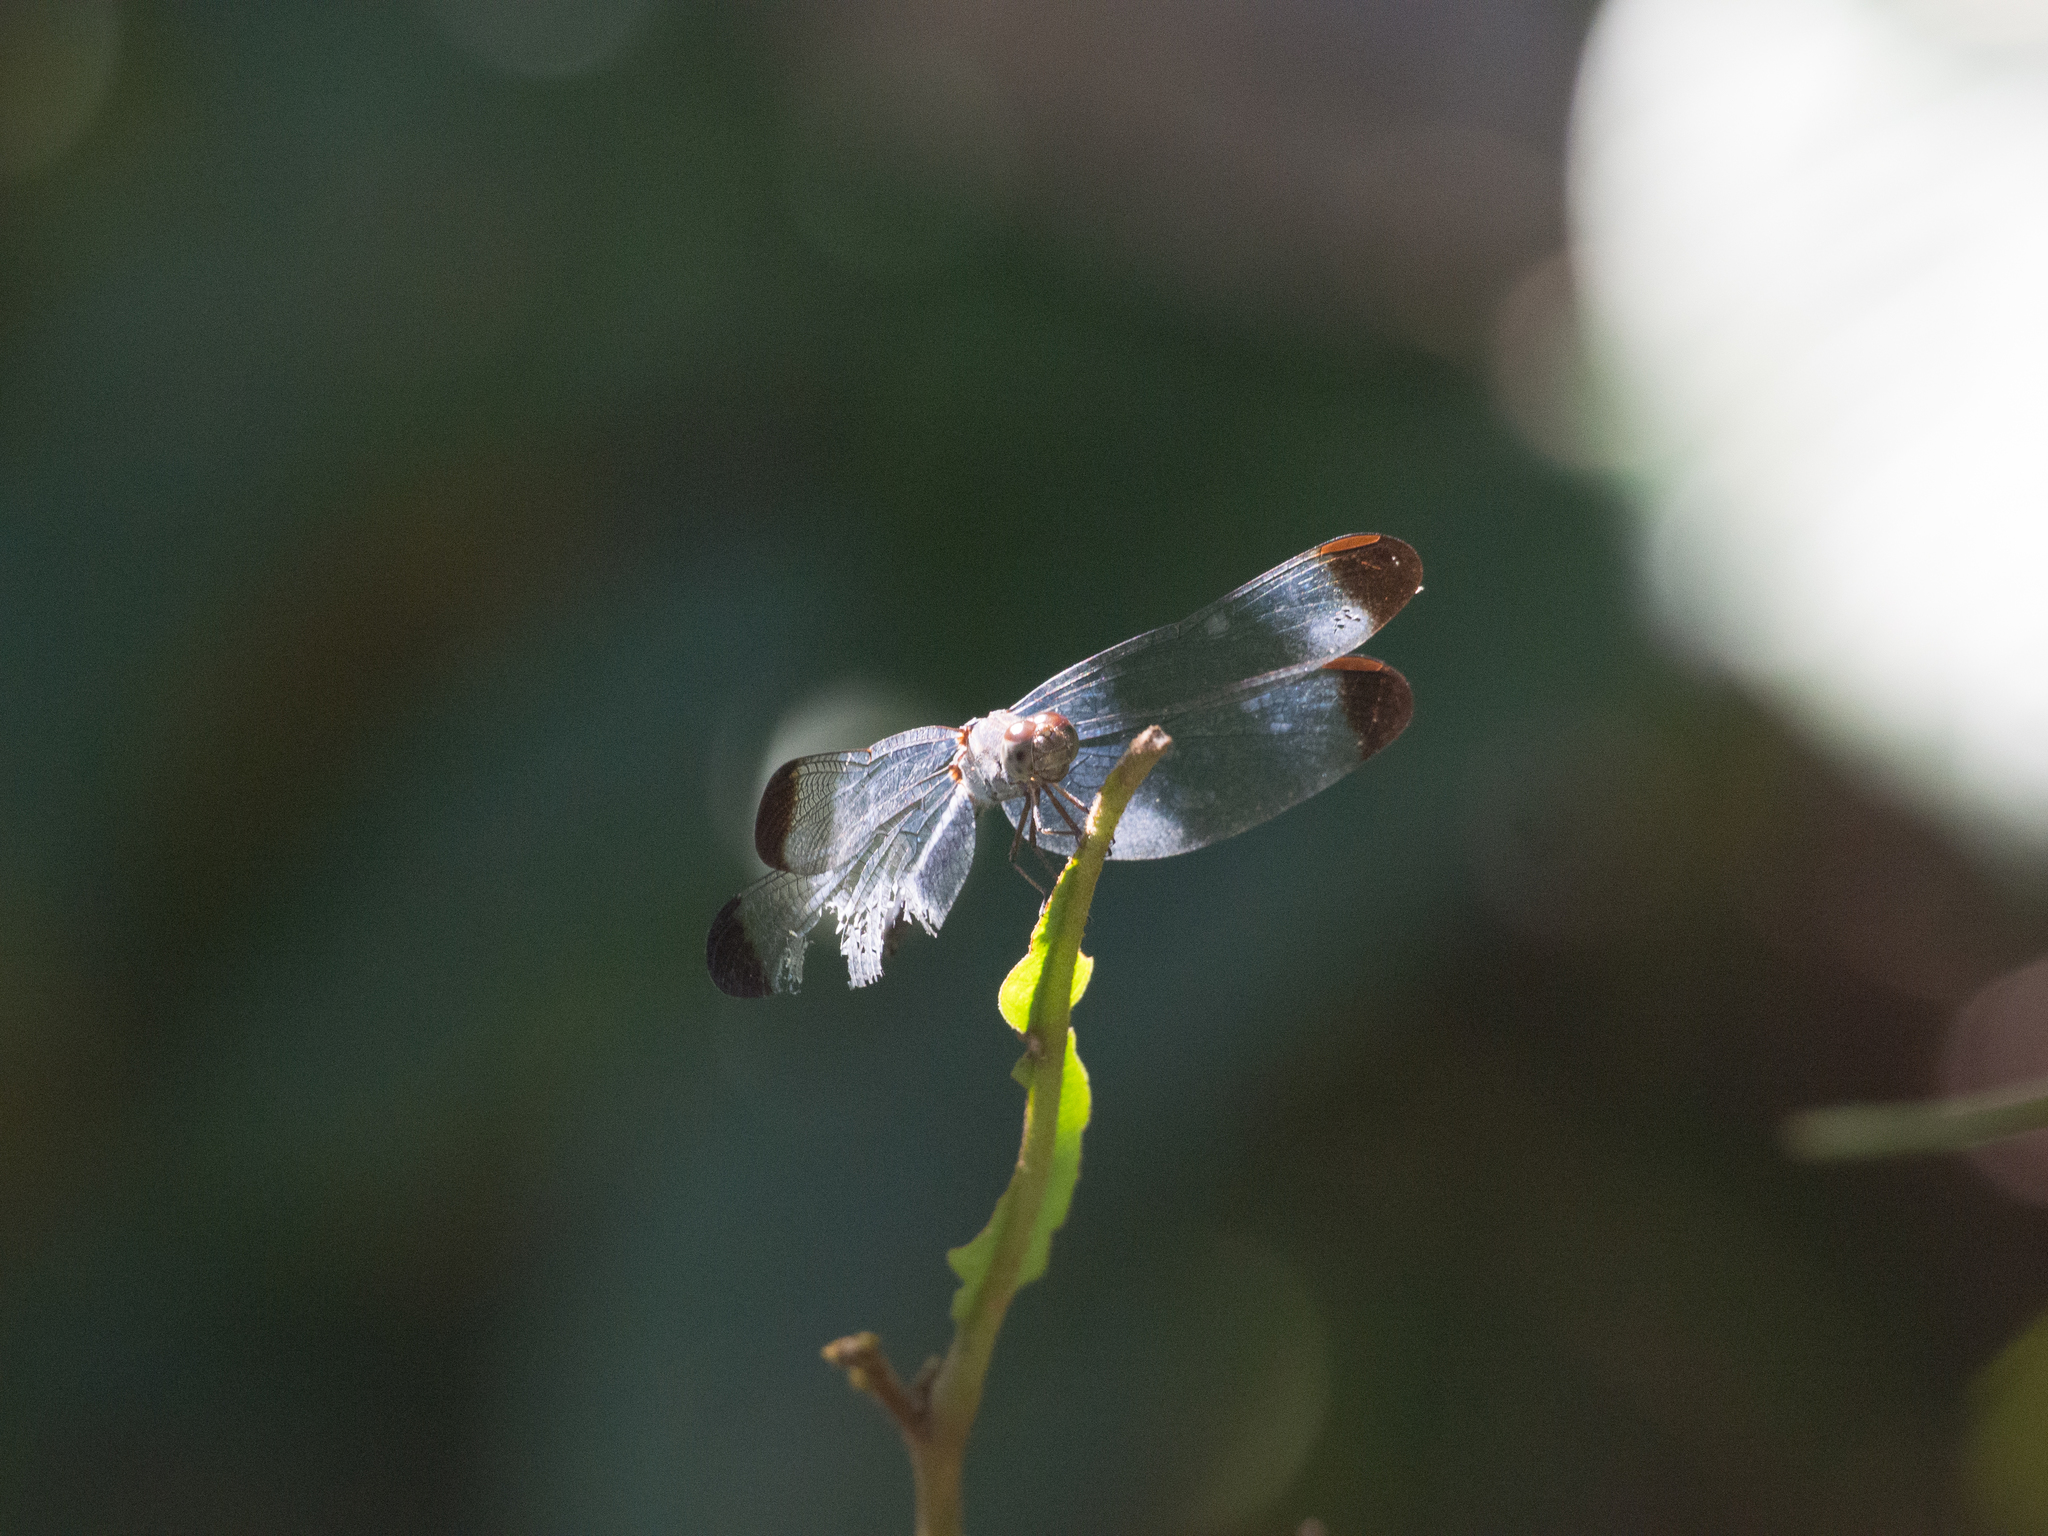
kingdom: Animalia
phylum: Arthropoda
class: Insecta
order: Odonata
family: Libellulidae
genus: Uracis
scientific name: Uracis imbuta
